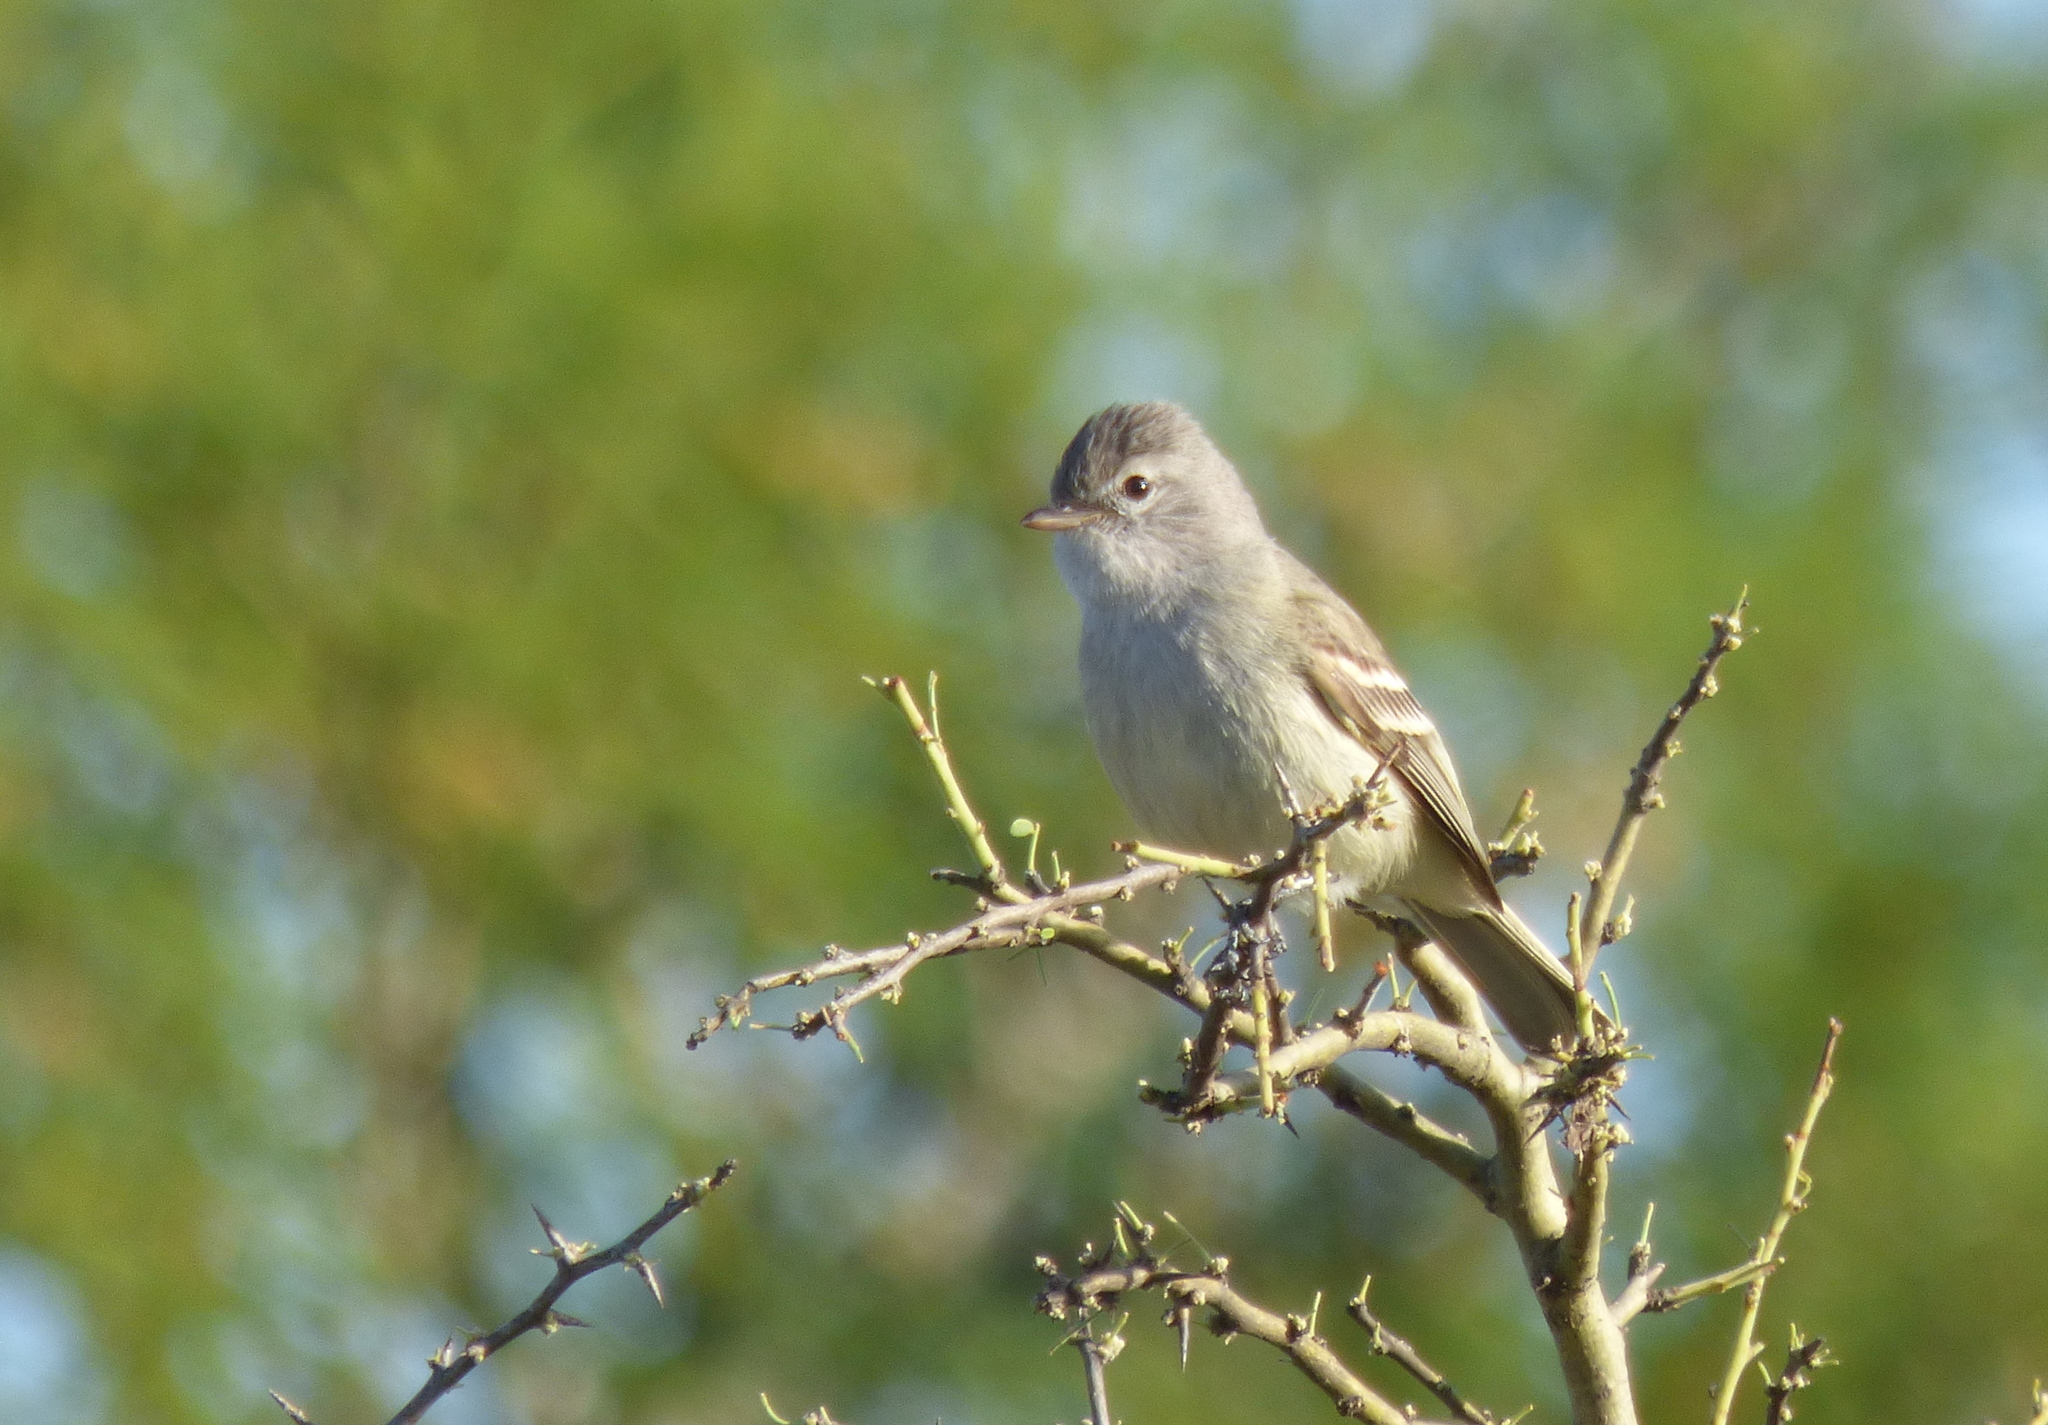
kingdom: Animalia
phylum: Chordata
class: Aves
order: Passeriformes
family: Tyrannidae
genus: Camptostoma
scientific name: Camptostoma obsoletum
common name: Southern beardless-tyrannulet
